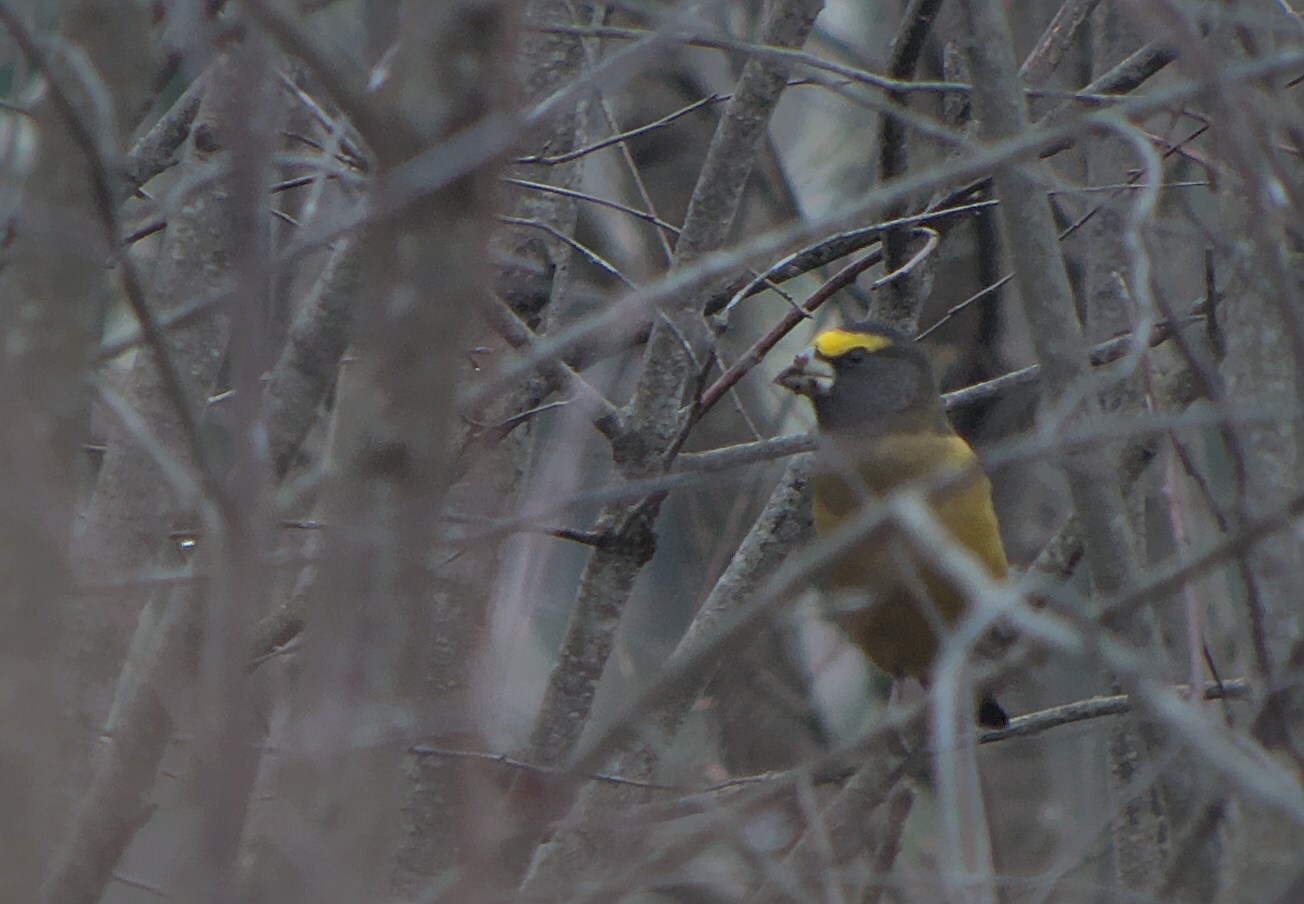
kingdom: Animalia
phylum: Chordata
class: Aves
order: Passeriformes
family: Fringillidae
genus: Hesperiphona
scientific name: Hesperiphona vespertina
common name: Evening grosbeak
